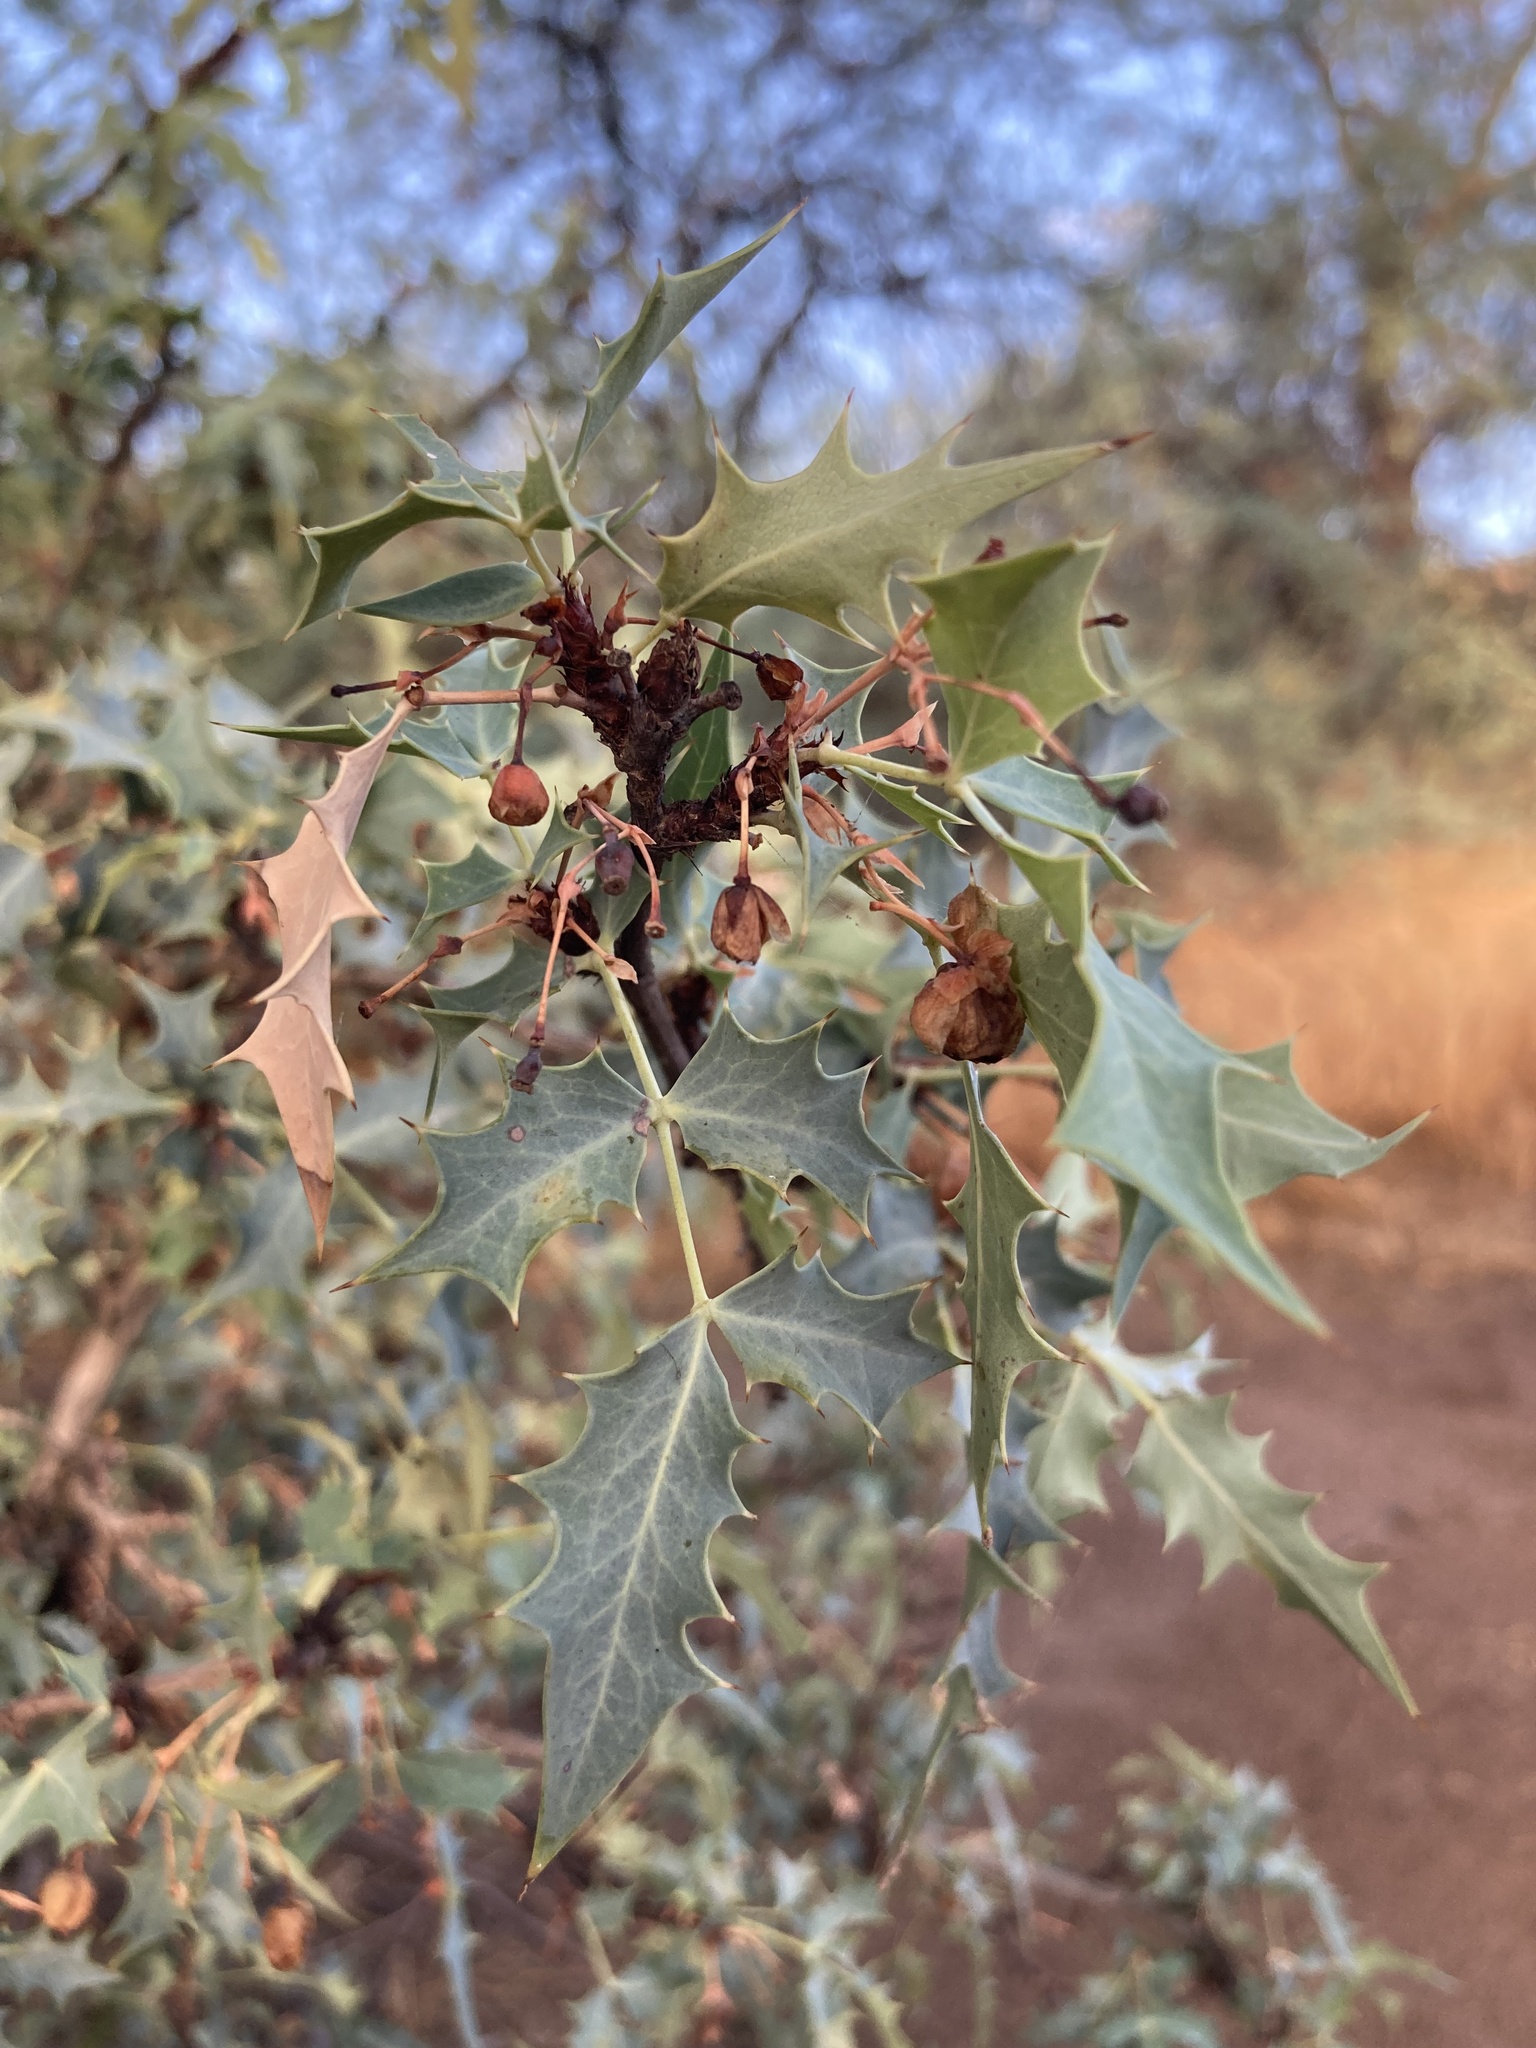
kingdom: Plantae
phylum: Tracheophyta
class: Magnoliopsida
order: Ranunculales
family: Berberidaceae
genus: Alloberberis
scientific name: Alloberberis haematocarpa
